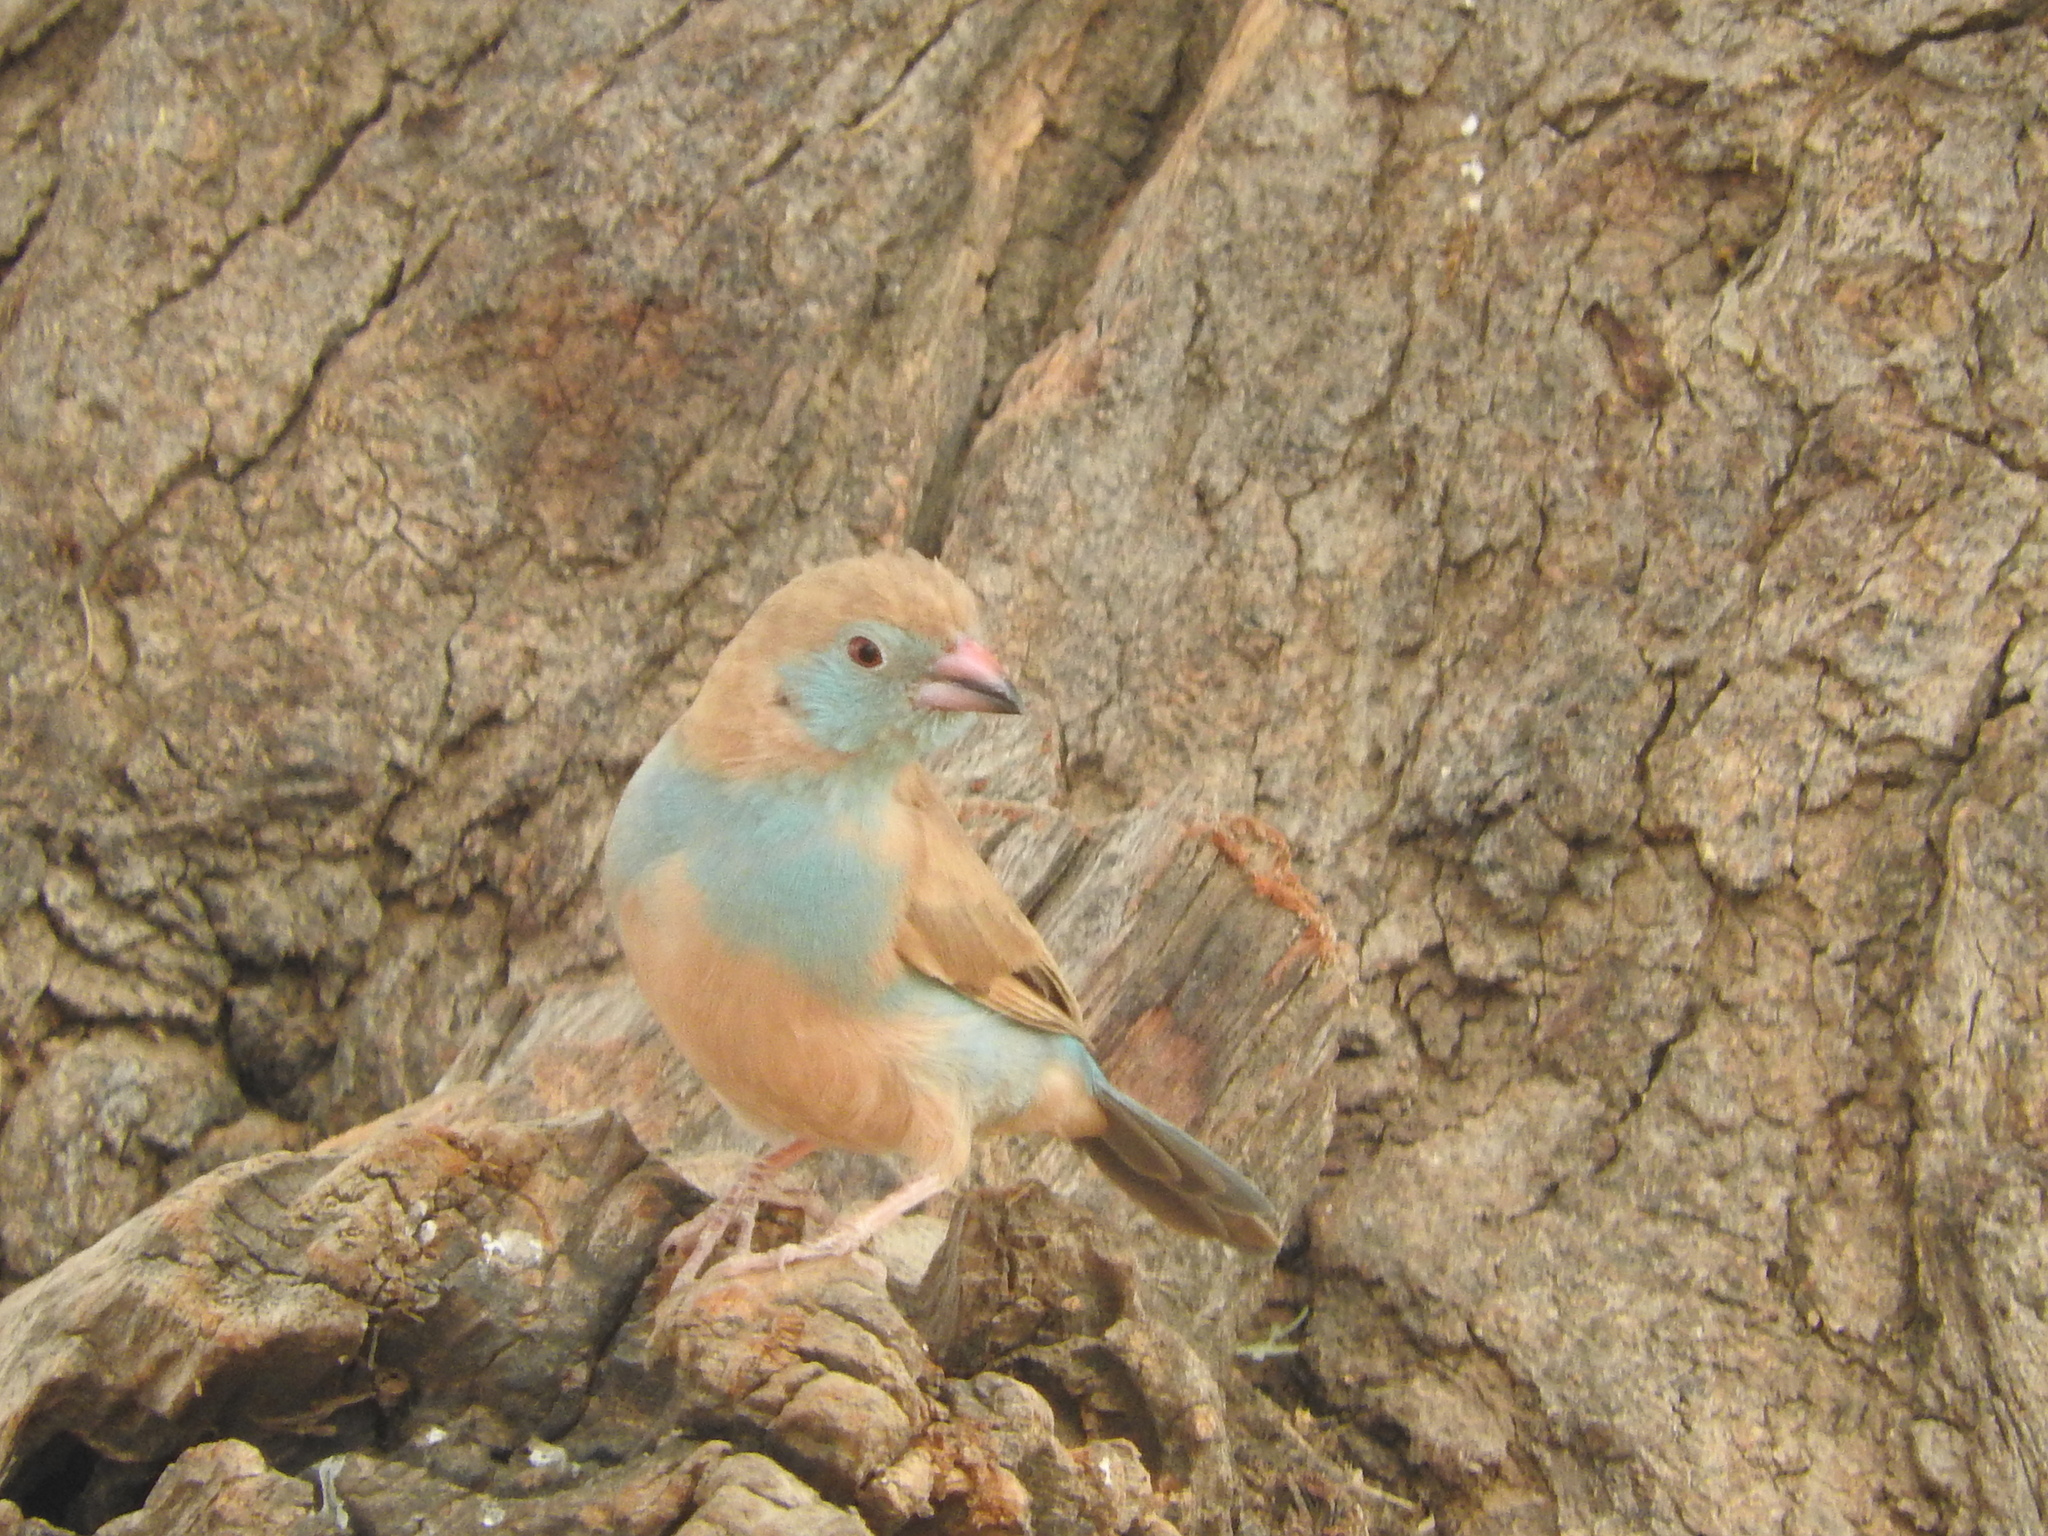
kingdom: Animalia
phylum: Chordata
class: Aves
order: Passeriformes
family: Estrildidae
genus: Uraeginthus
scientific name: Uraeginthus bengalus
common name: Red-cheeked cordon-bleu
